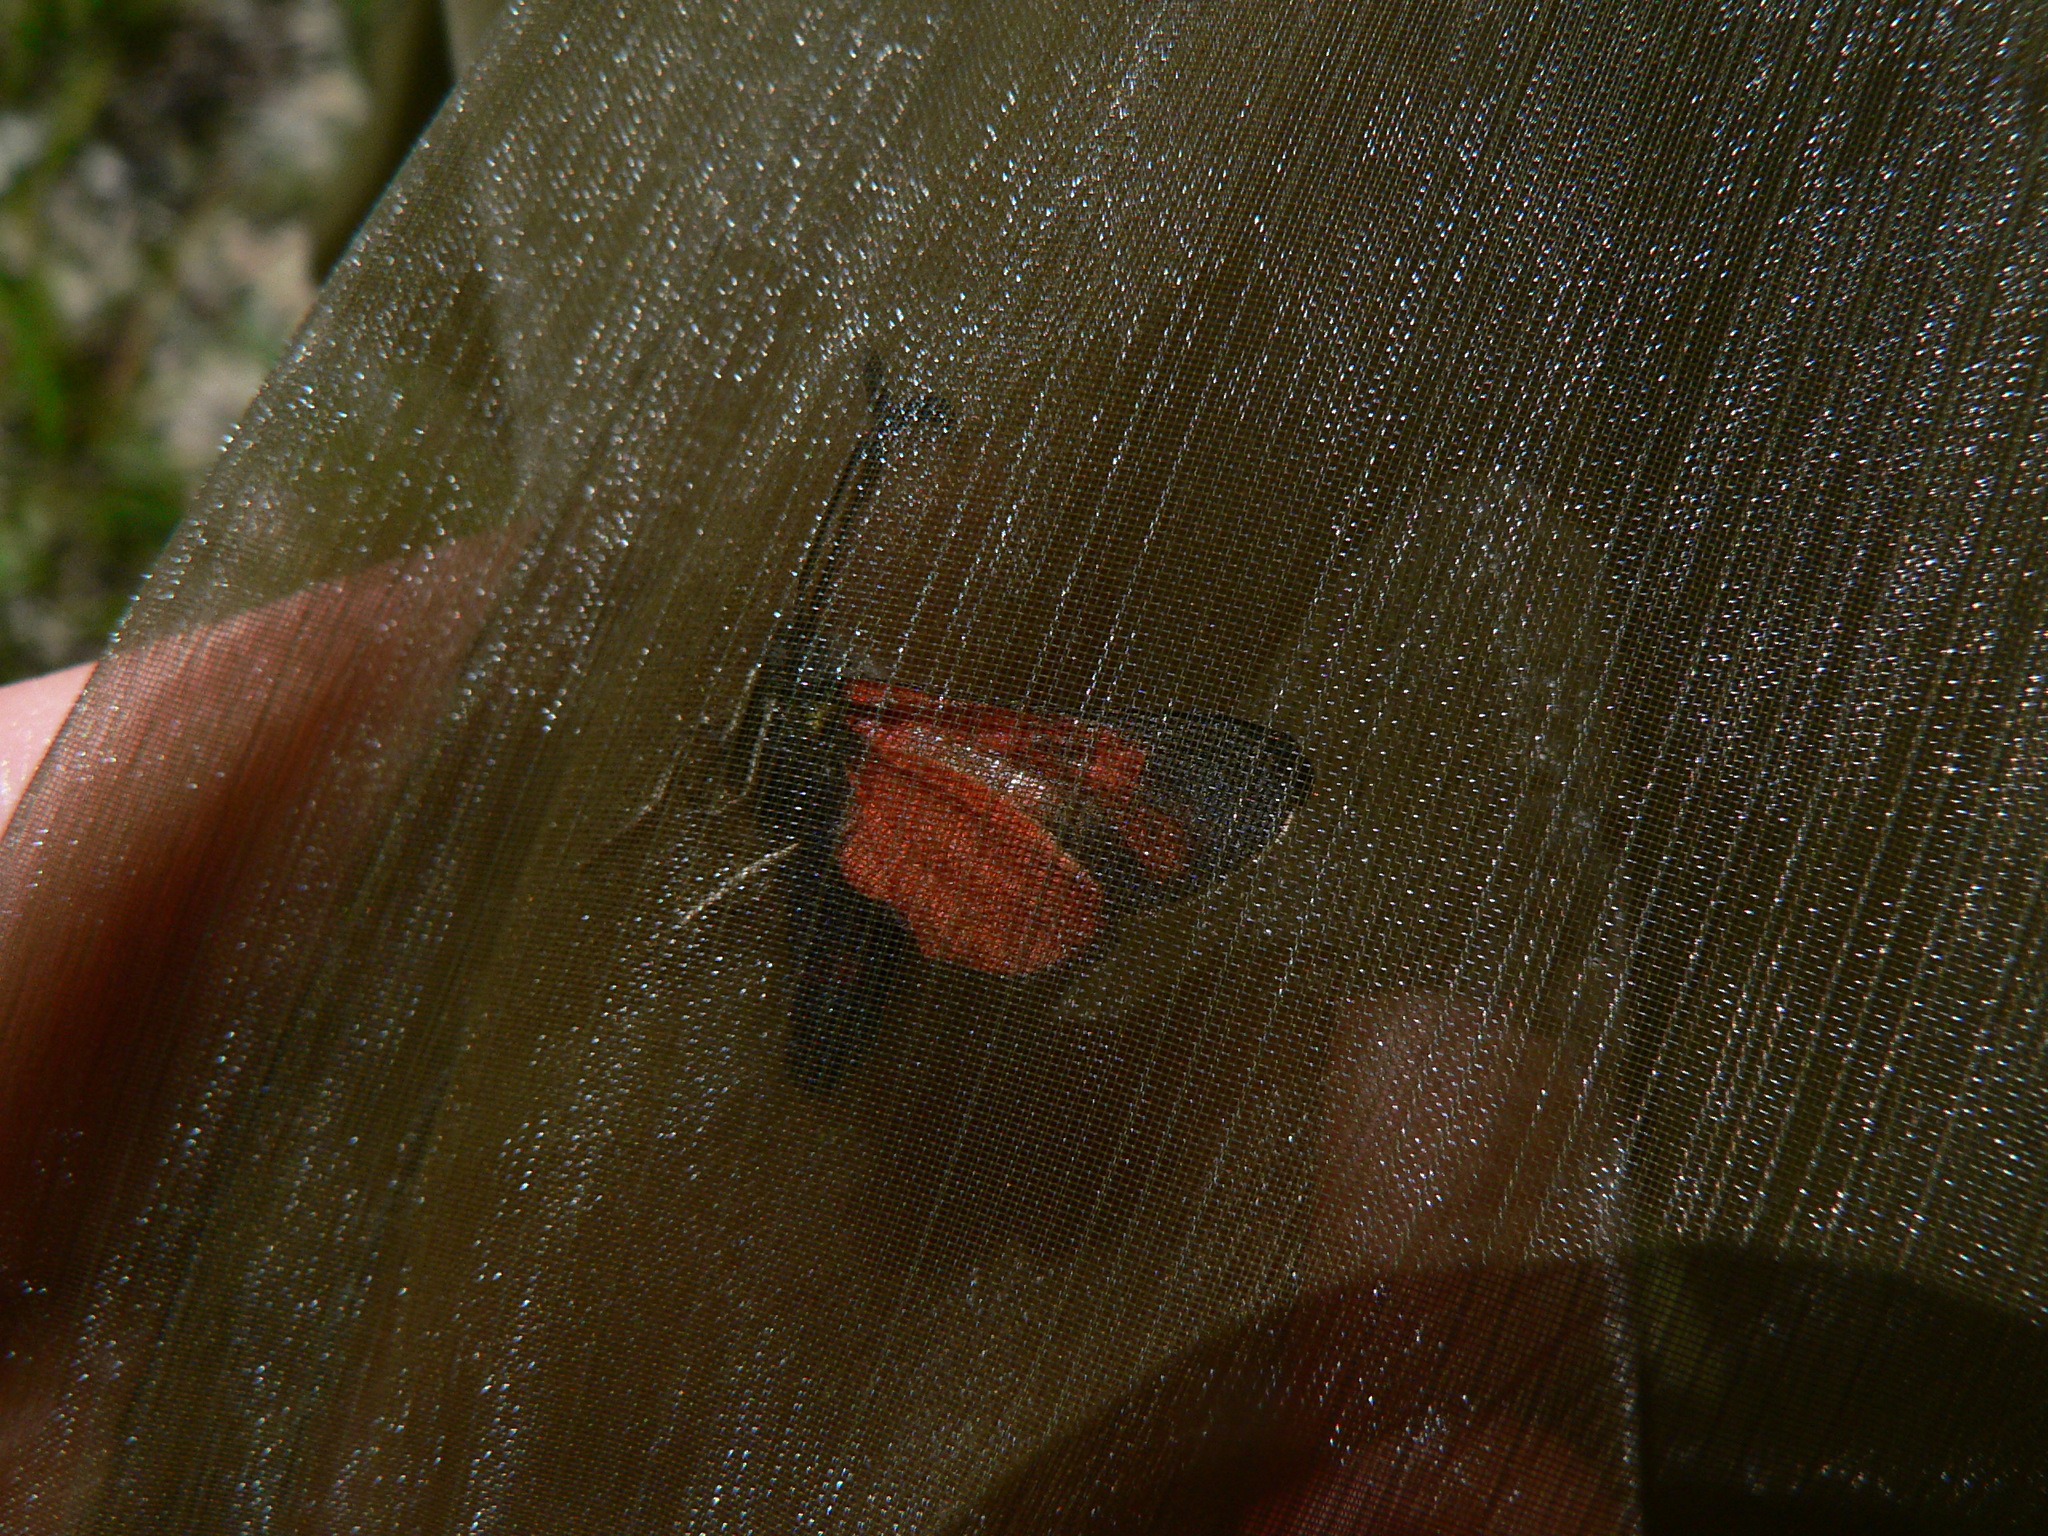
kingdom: Animalia
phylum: Arthropoda
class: Insecta
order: Lepidoptera
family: Zygaenidae
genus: Zygaena
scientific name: Zygaena rhadamanthus
